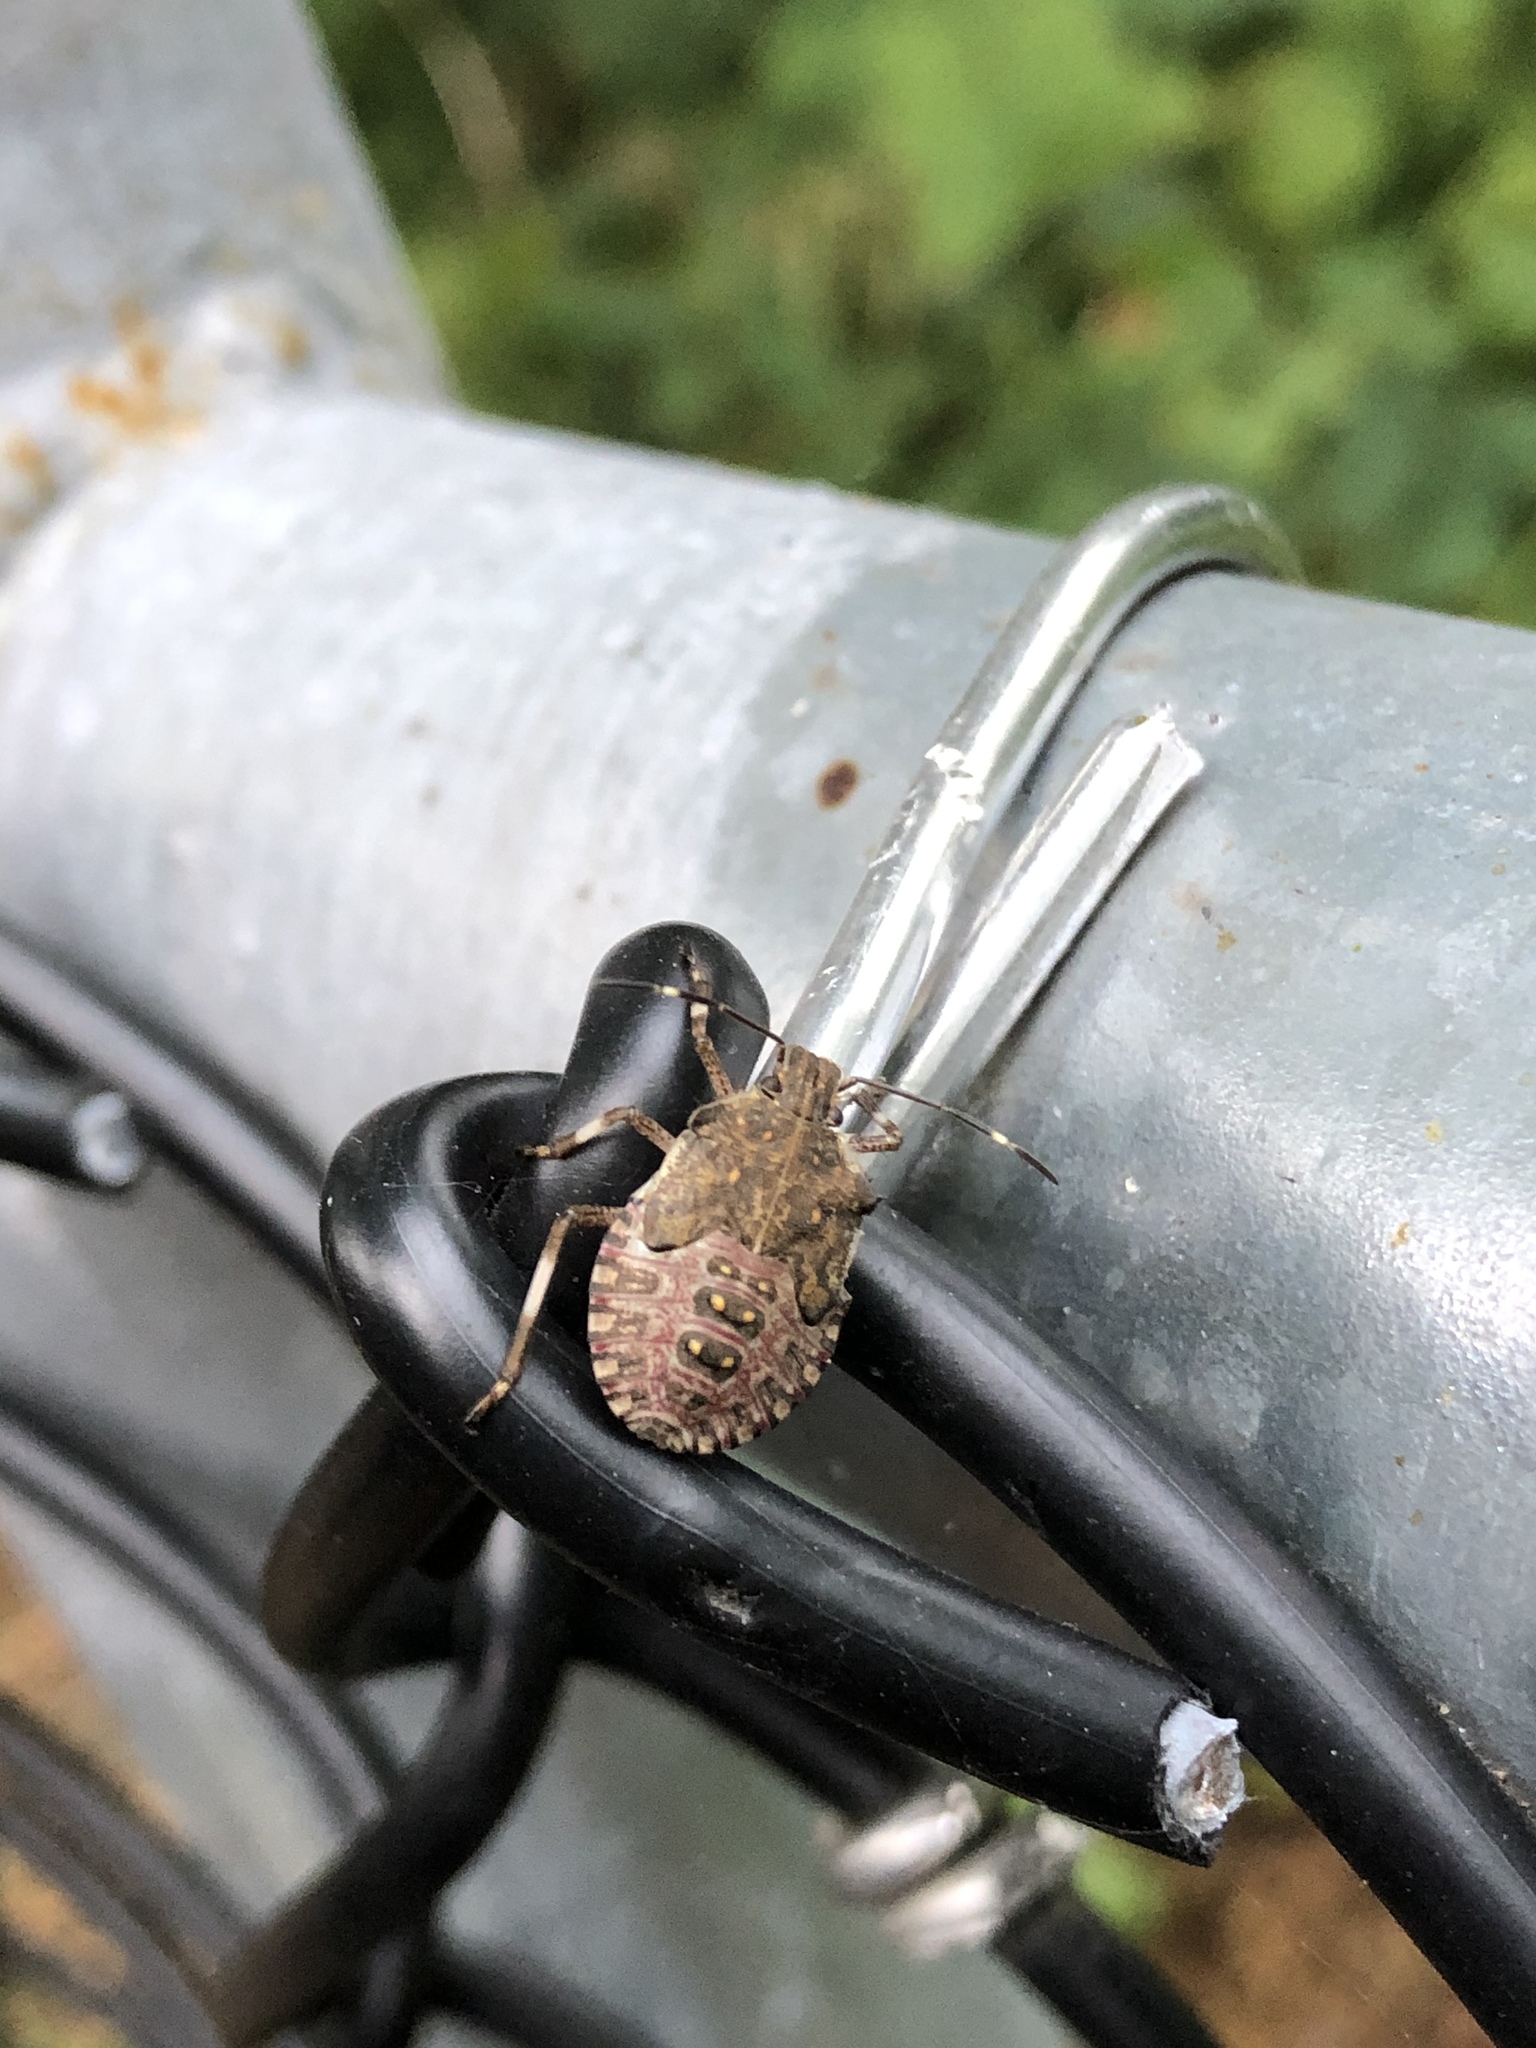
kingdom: Animalia
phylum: Arthropoda
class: Insecta
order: Hemiptera
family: Pentatomidae
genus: Halyomorpha
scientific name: Halyomorpha halys
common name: Brown marmorated stink bug
